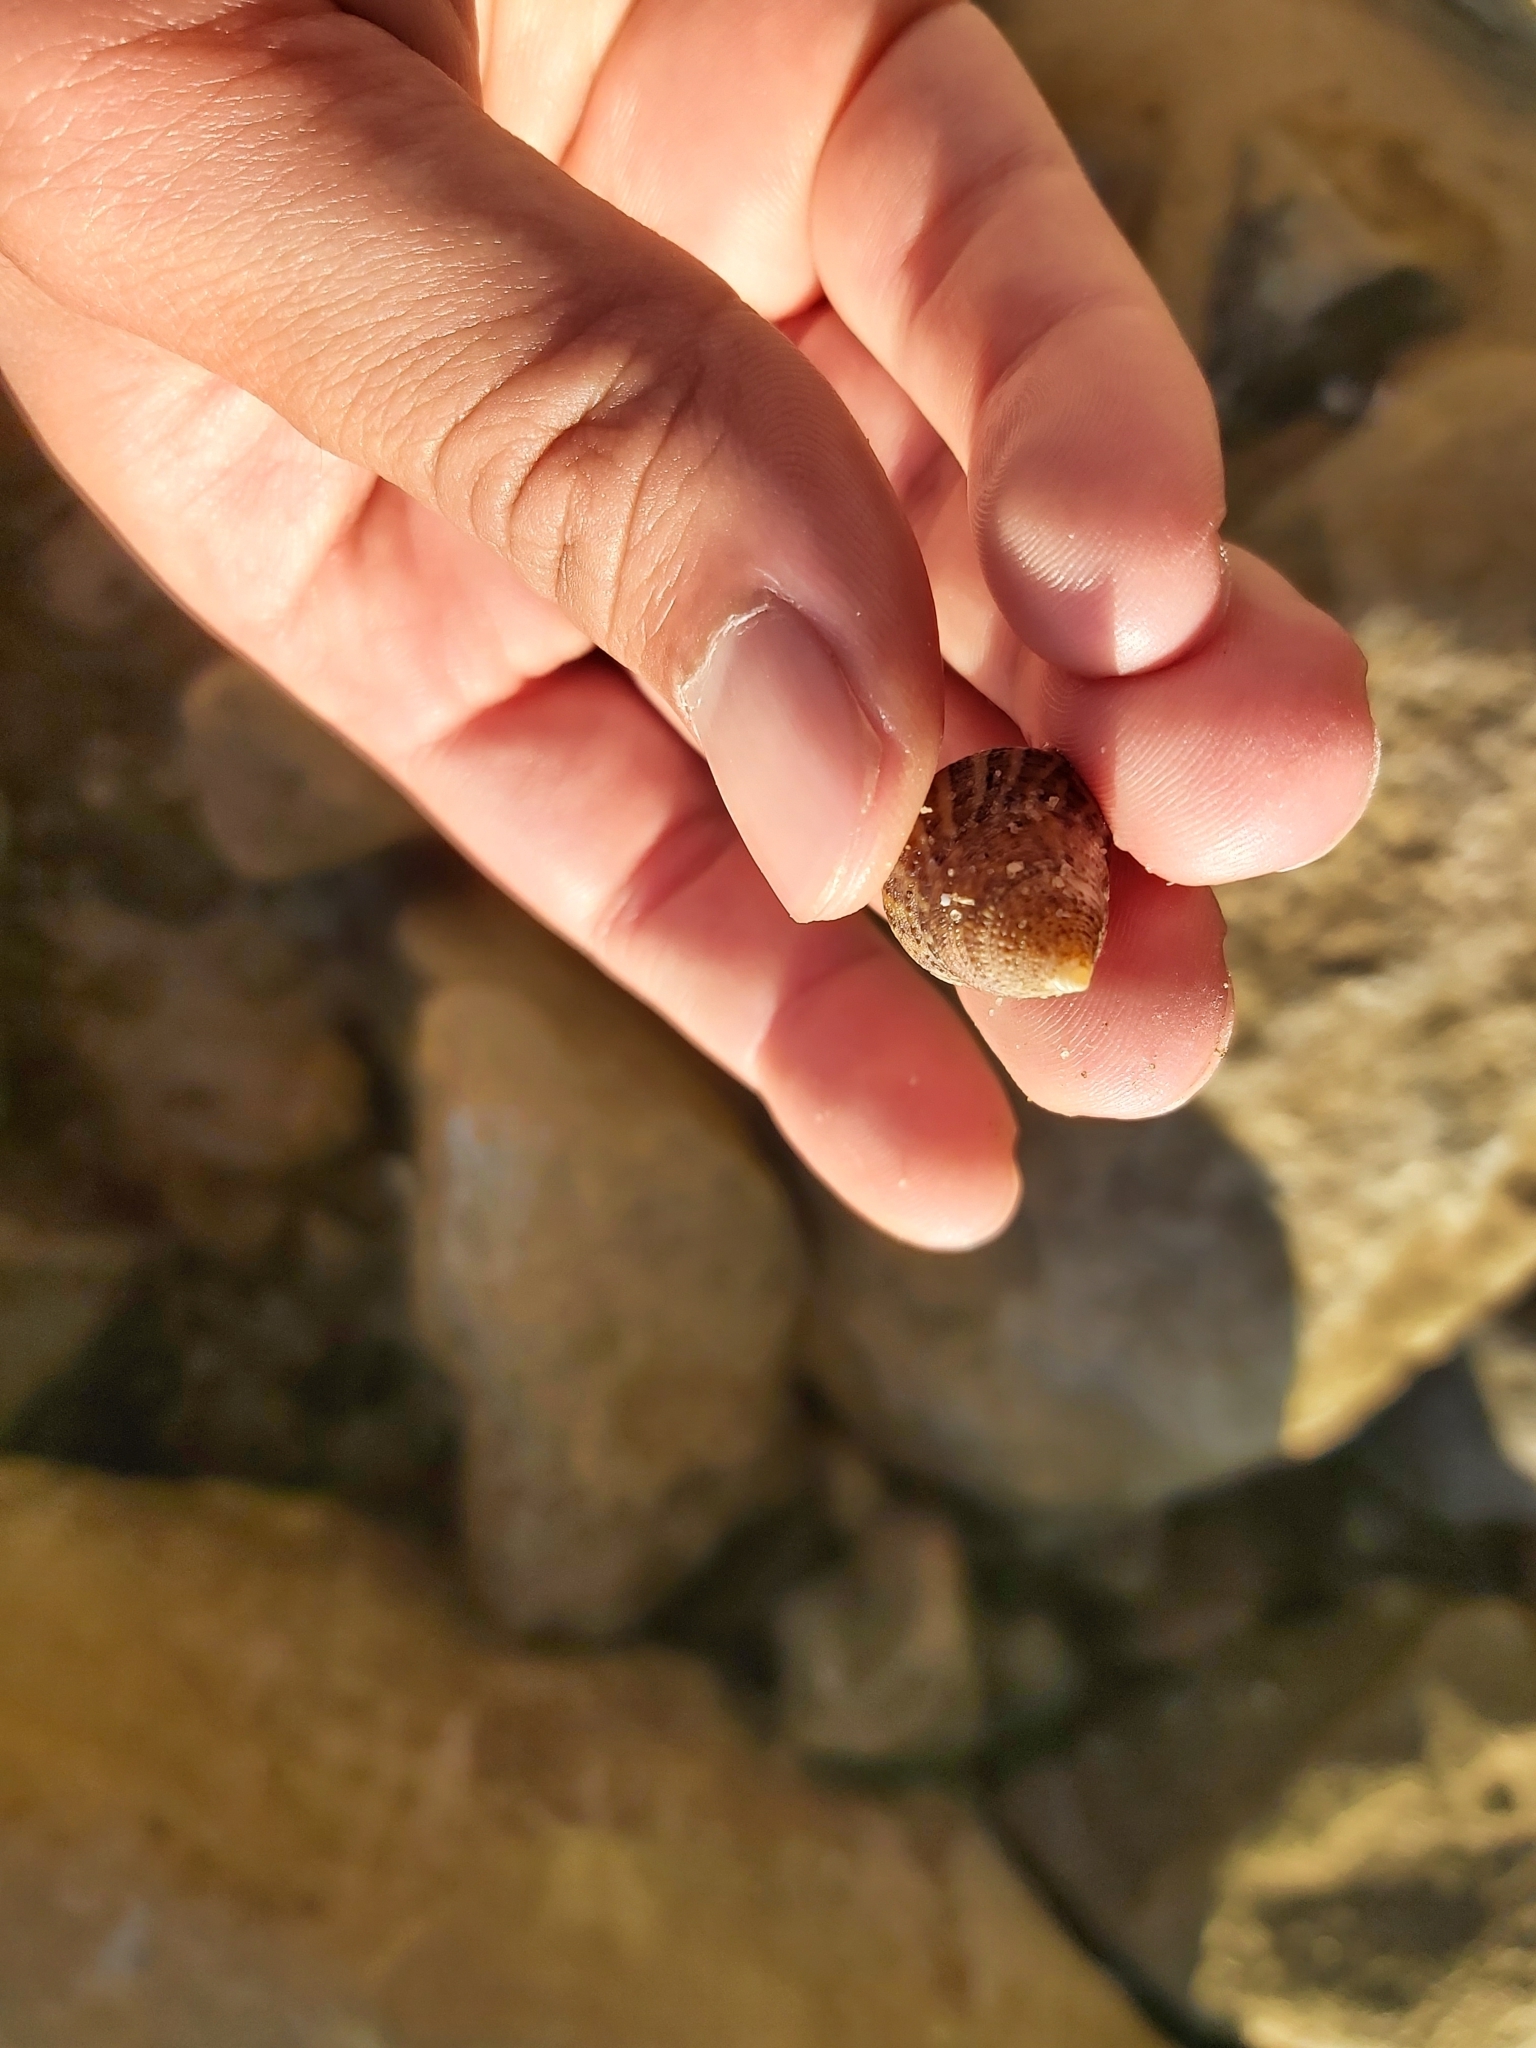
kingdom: Animalia
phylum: Mollusca
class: Gastropoda
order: Trochida
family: Trochidae
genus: Calthalotia
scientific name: Calthalotia fragum
